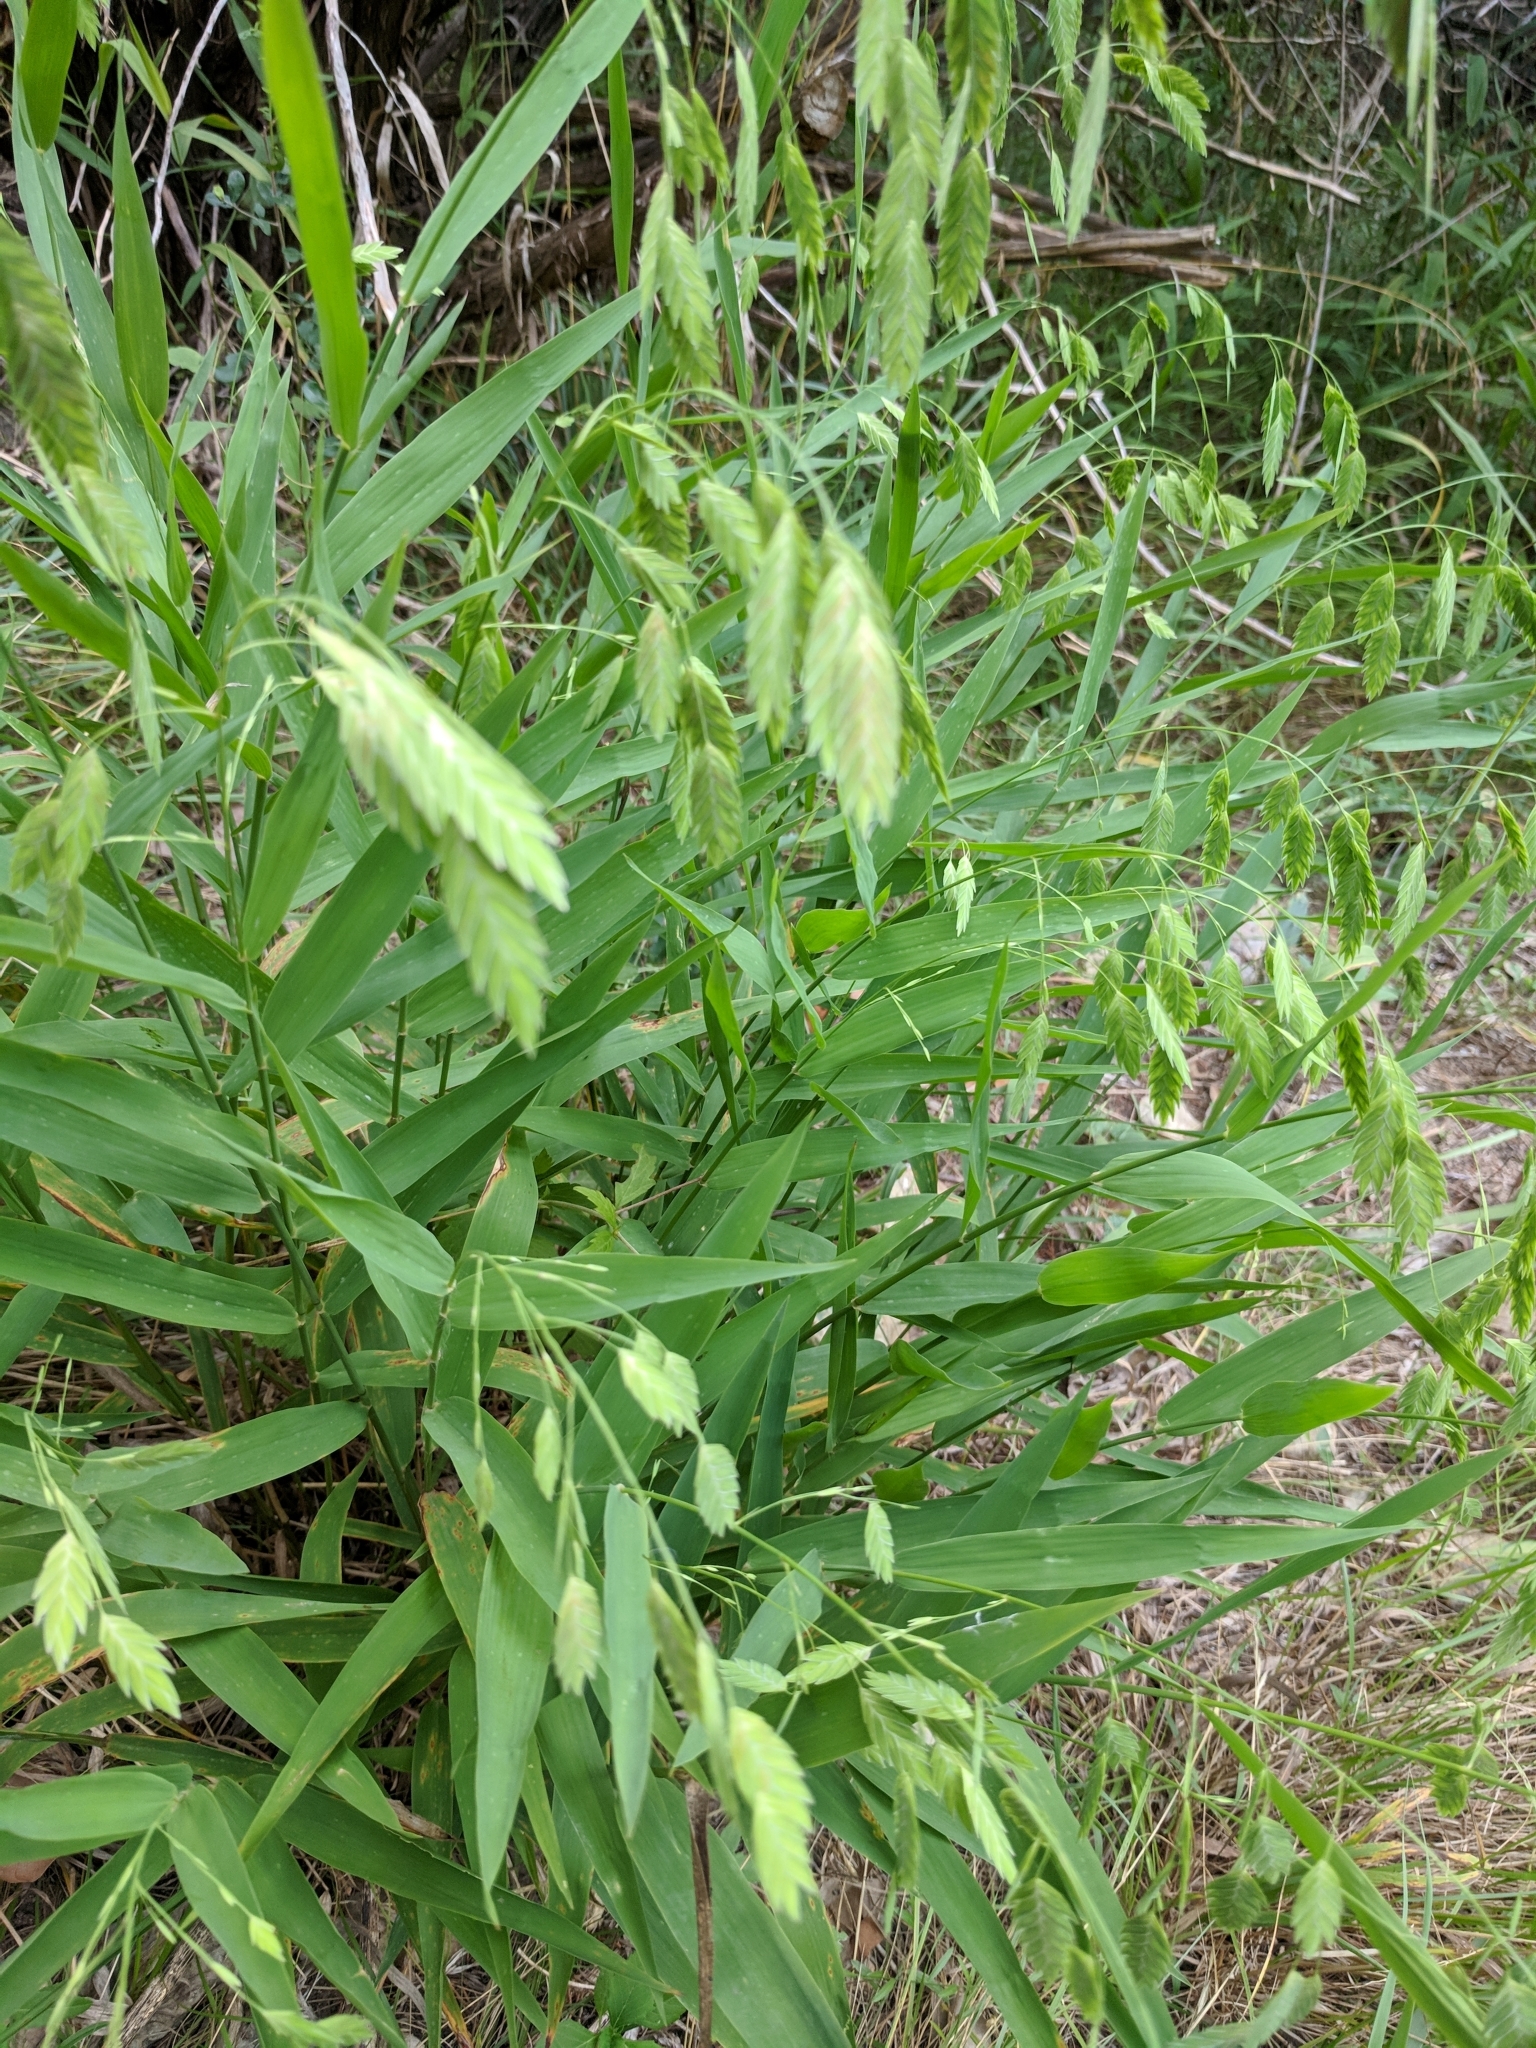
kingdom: Plantae
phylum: Tracheophyta
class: Liliopsida
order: Poales
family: Poaceae
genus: Chasmanthium
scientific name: Chasmanthium latifolium
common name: Broad-leaved chasmanthium
